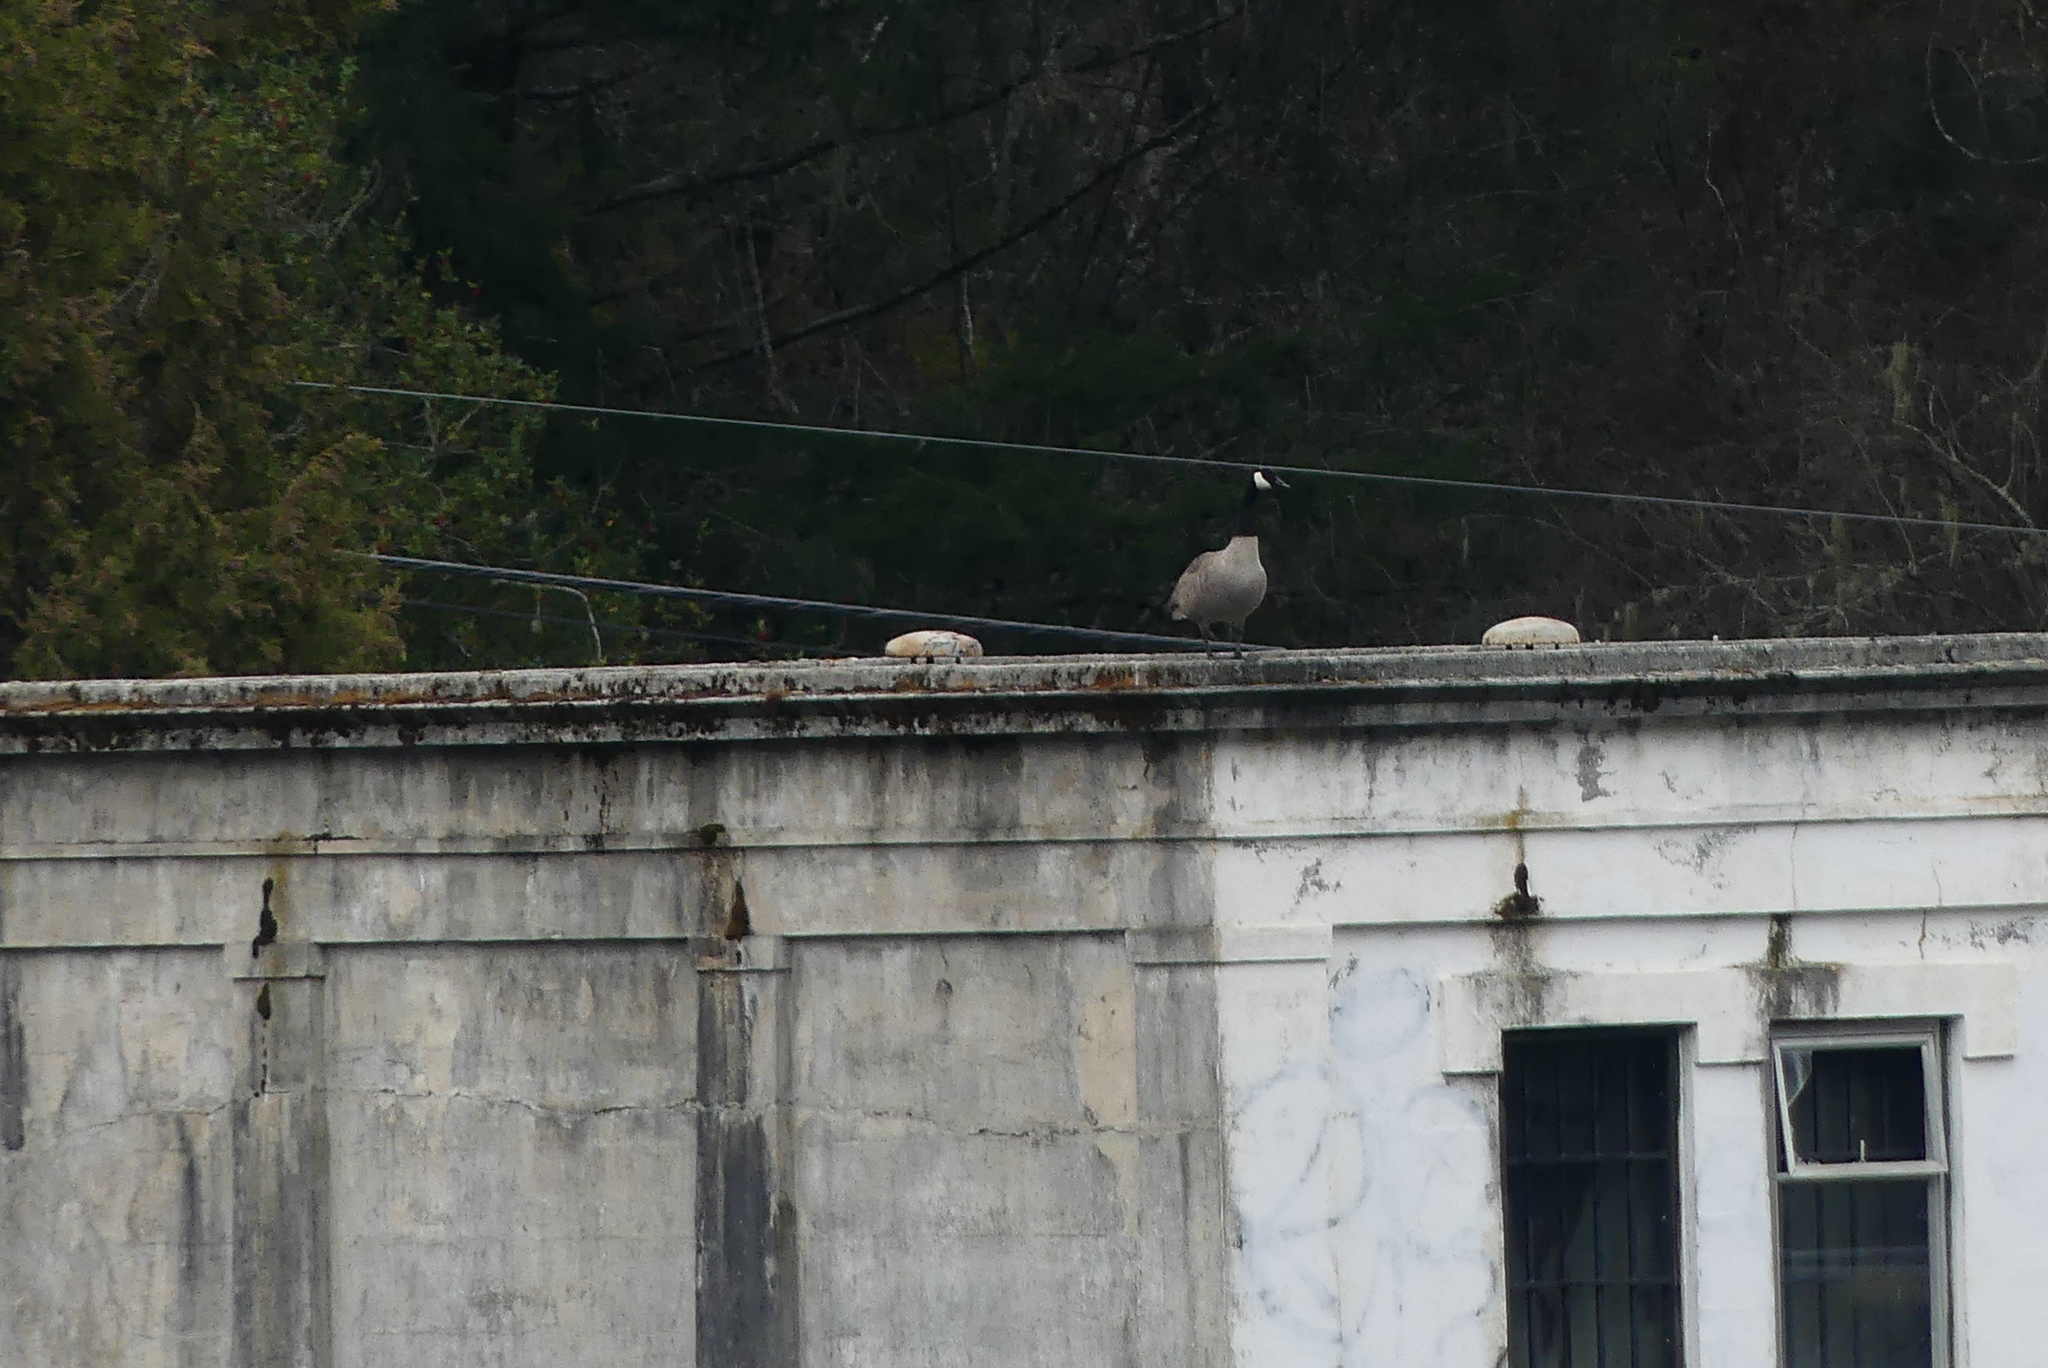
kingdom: Animalia
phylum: Chordata
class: Aves
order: Anseriformes
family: Anatidae
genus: Branta
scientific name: Branta canadensis
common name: Canada goose
